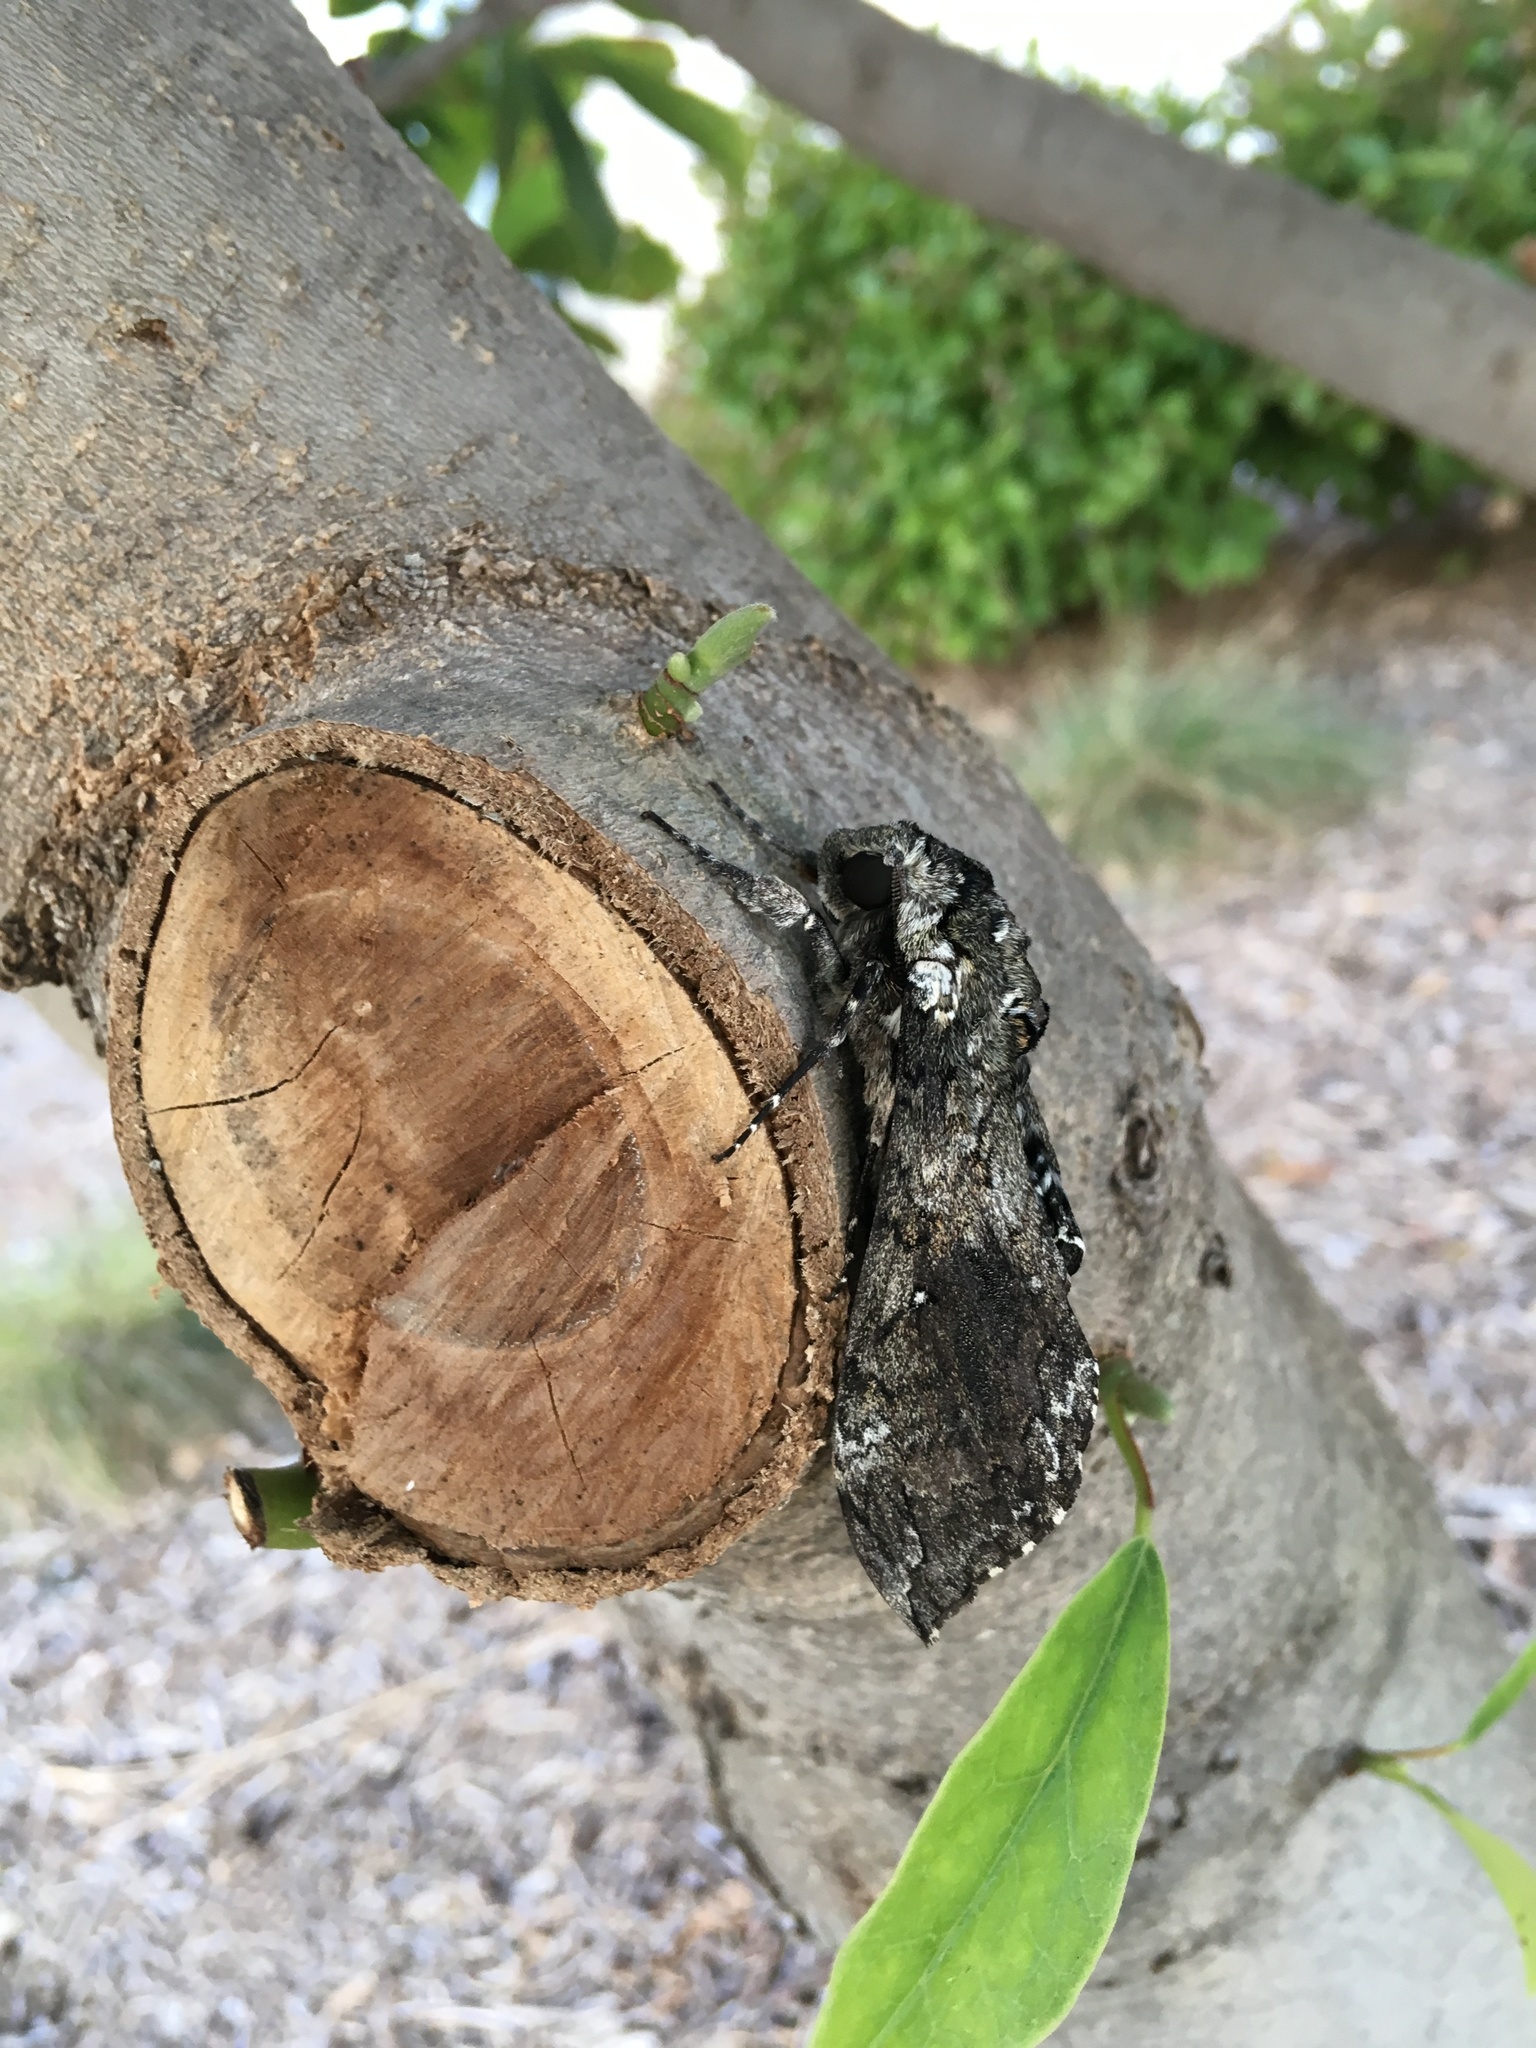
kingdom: Animalia
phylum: Arthropoda
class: Insecta
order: Lepidoptera
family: Sphingidae
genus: Manduca
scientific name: Manduca sexta
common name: Carolina sphinx
